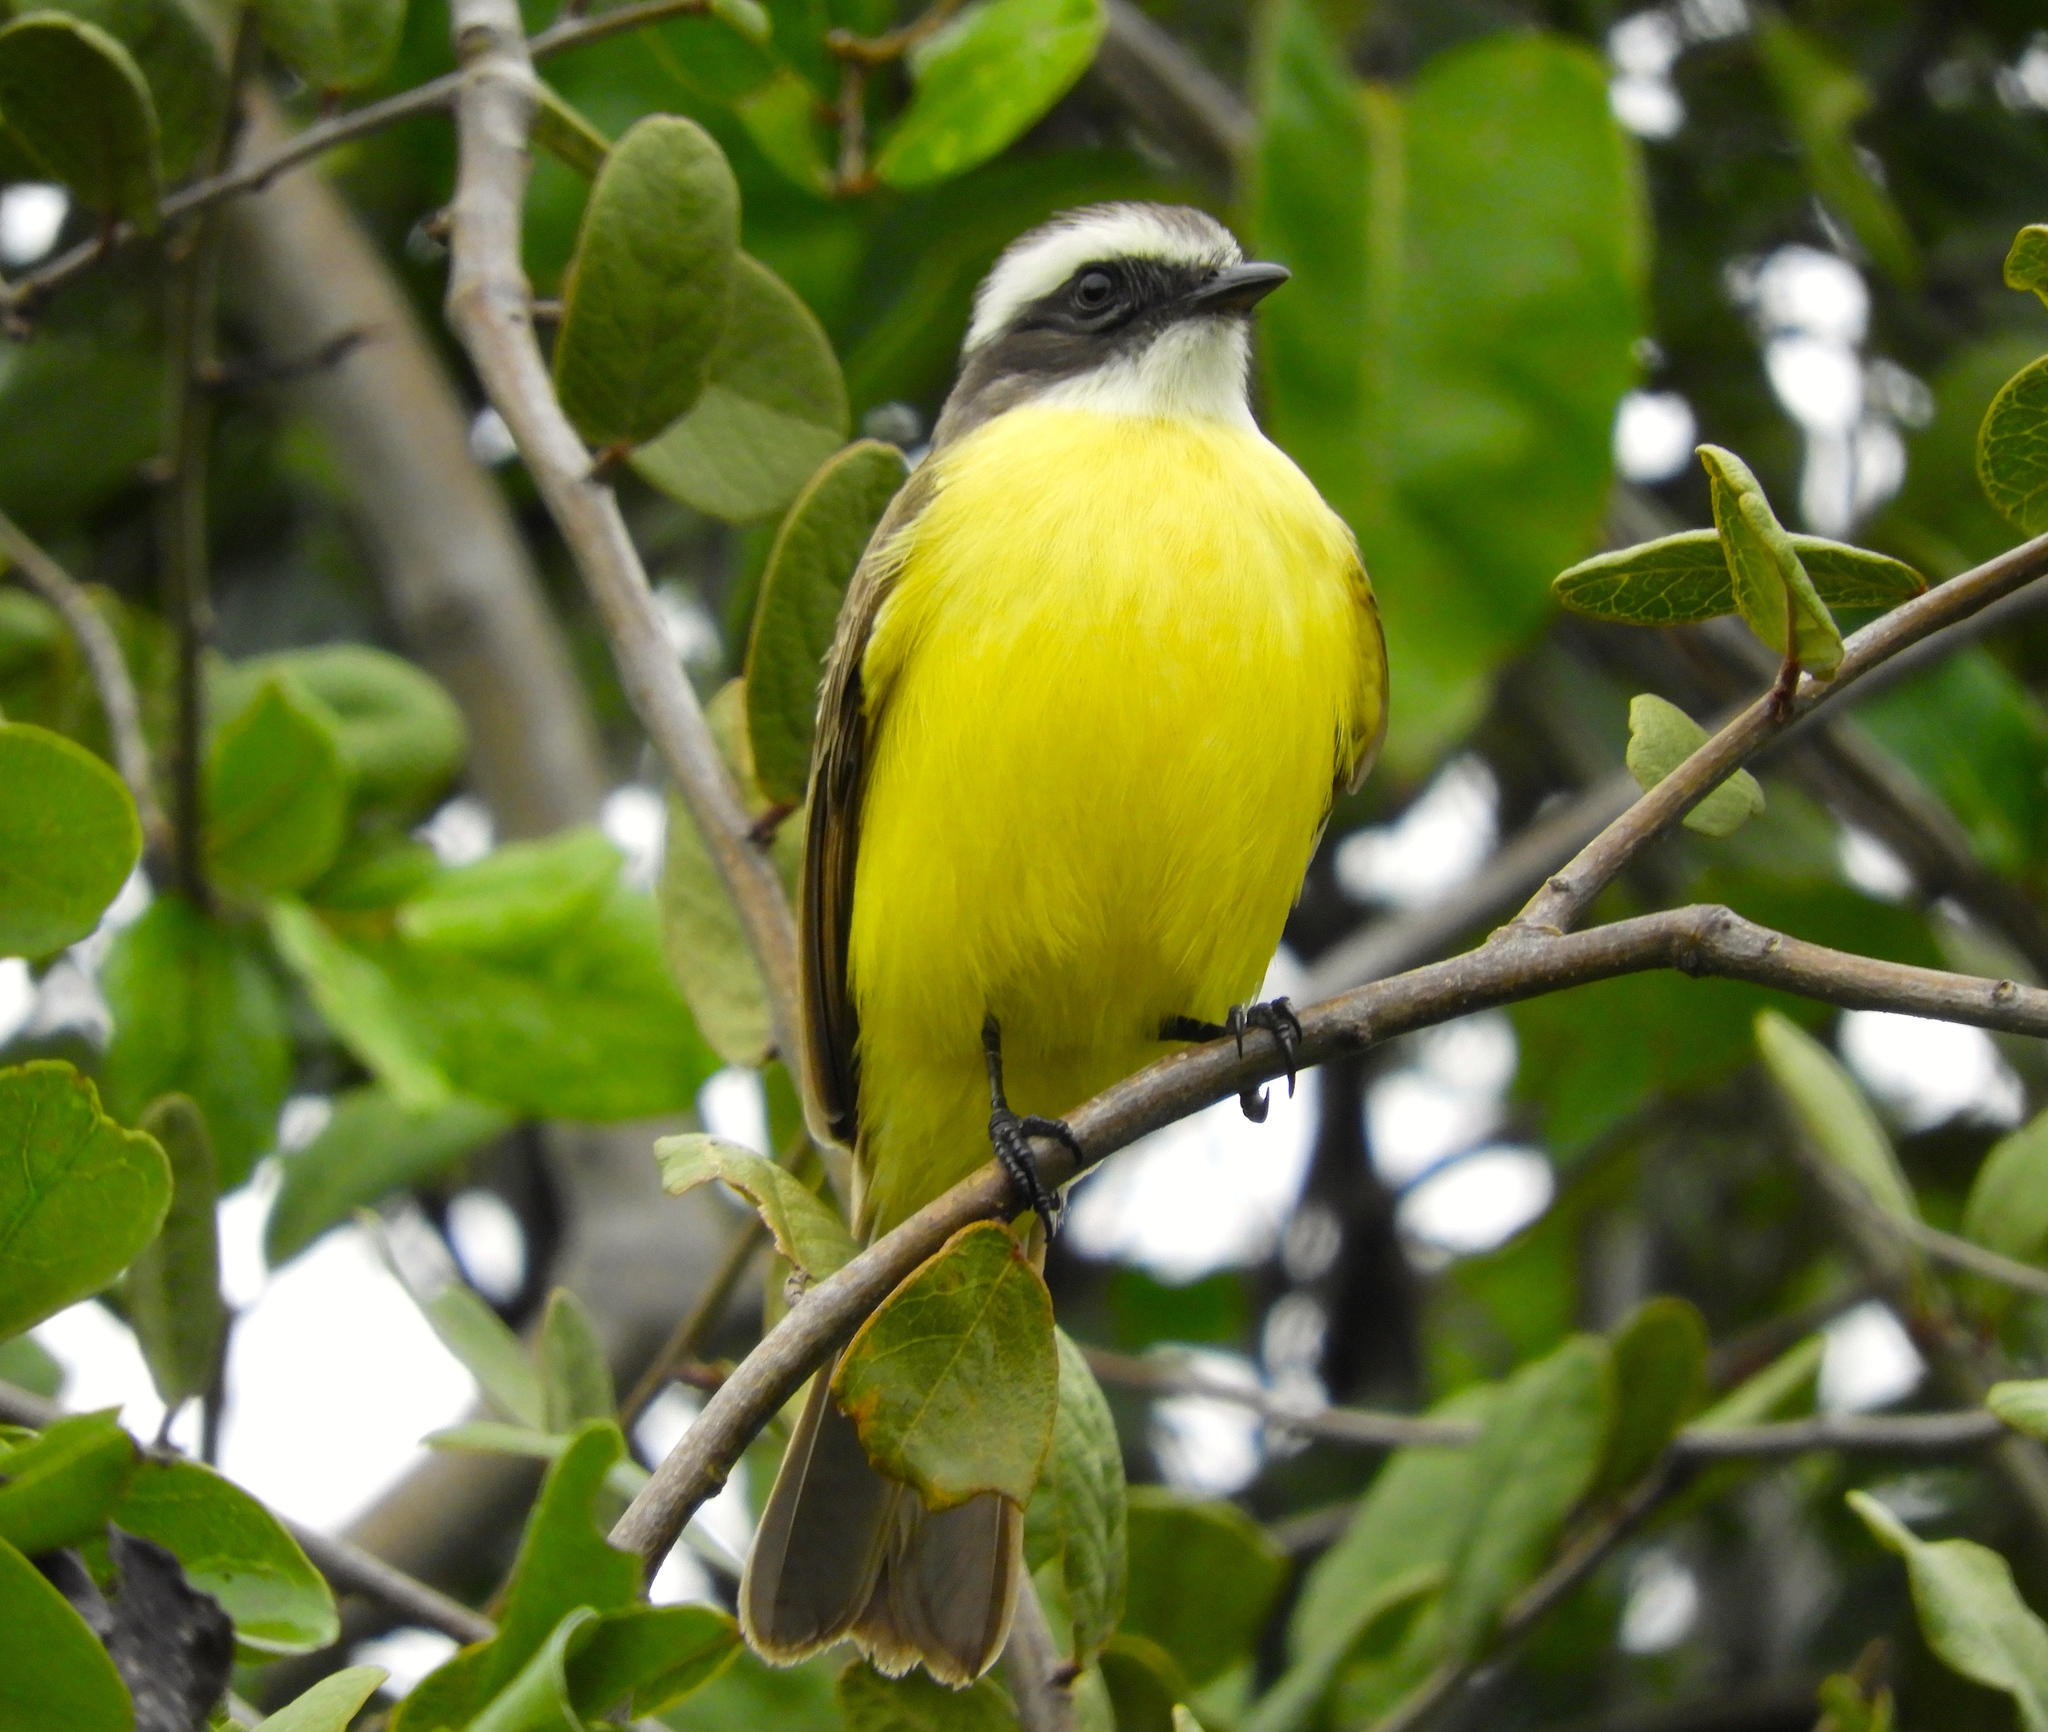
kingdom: Animalia
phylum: Chordata
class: Aves
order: Passeriformes
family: Tyrannidae
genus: Myiozetetes
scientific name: Myiozetetes similis
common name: Social flycatcher
